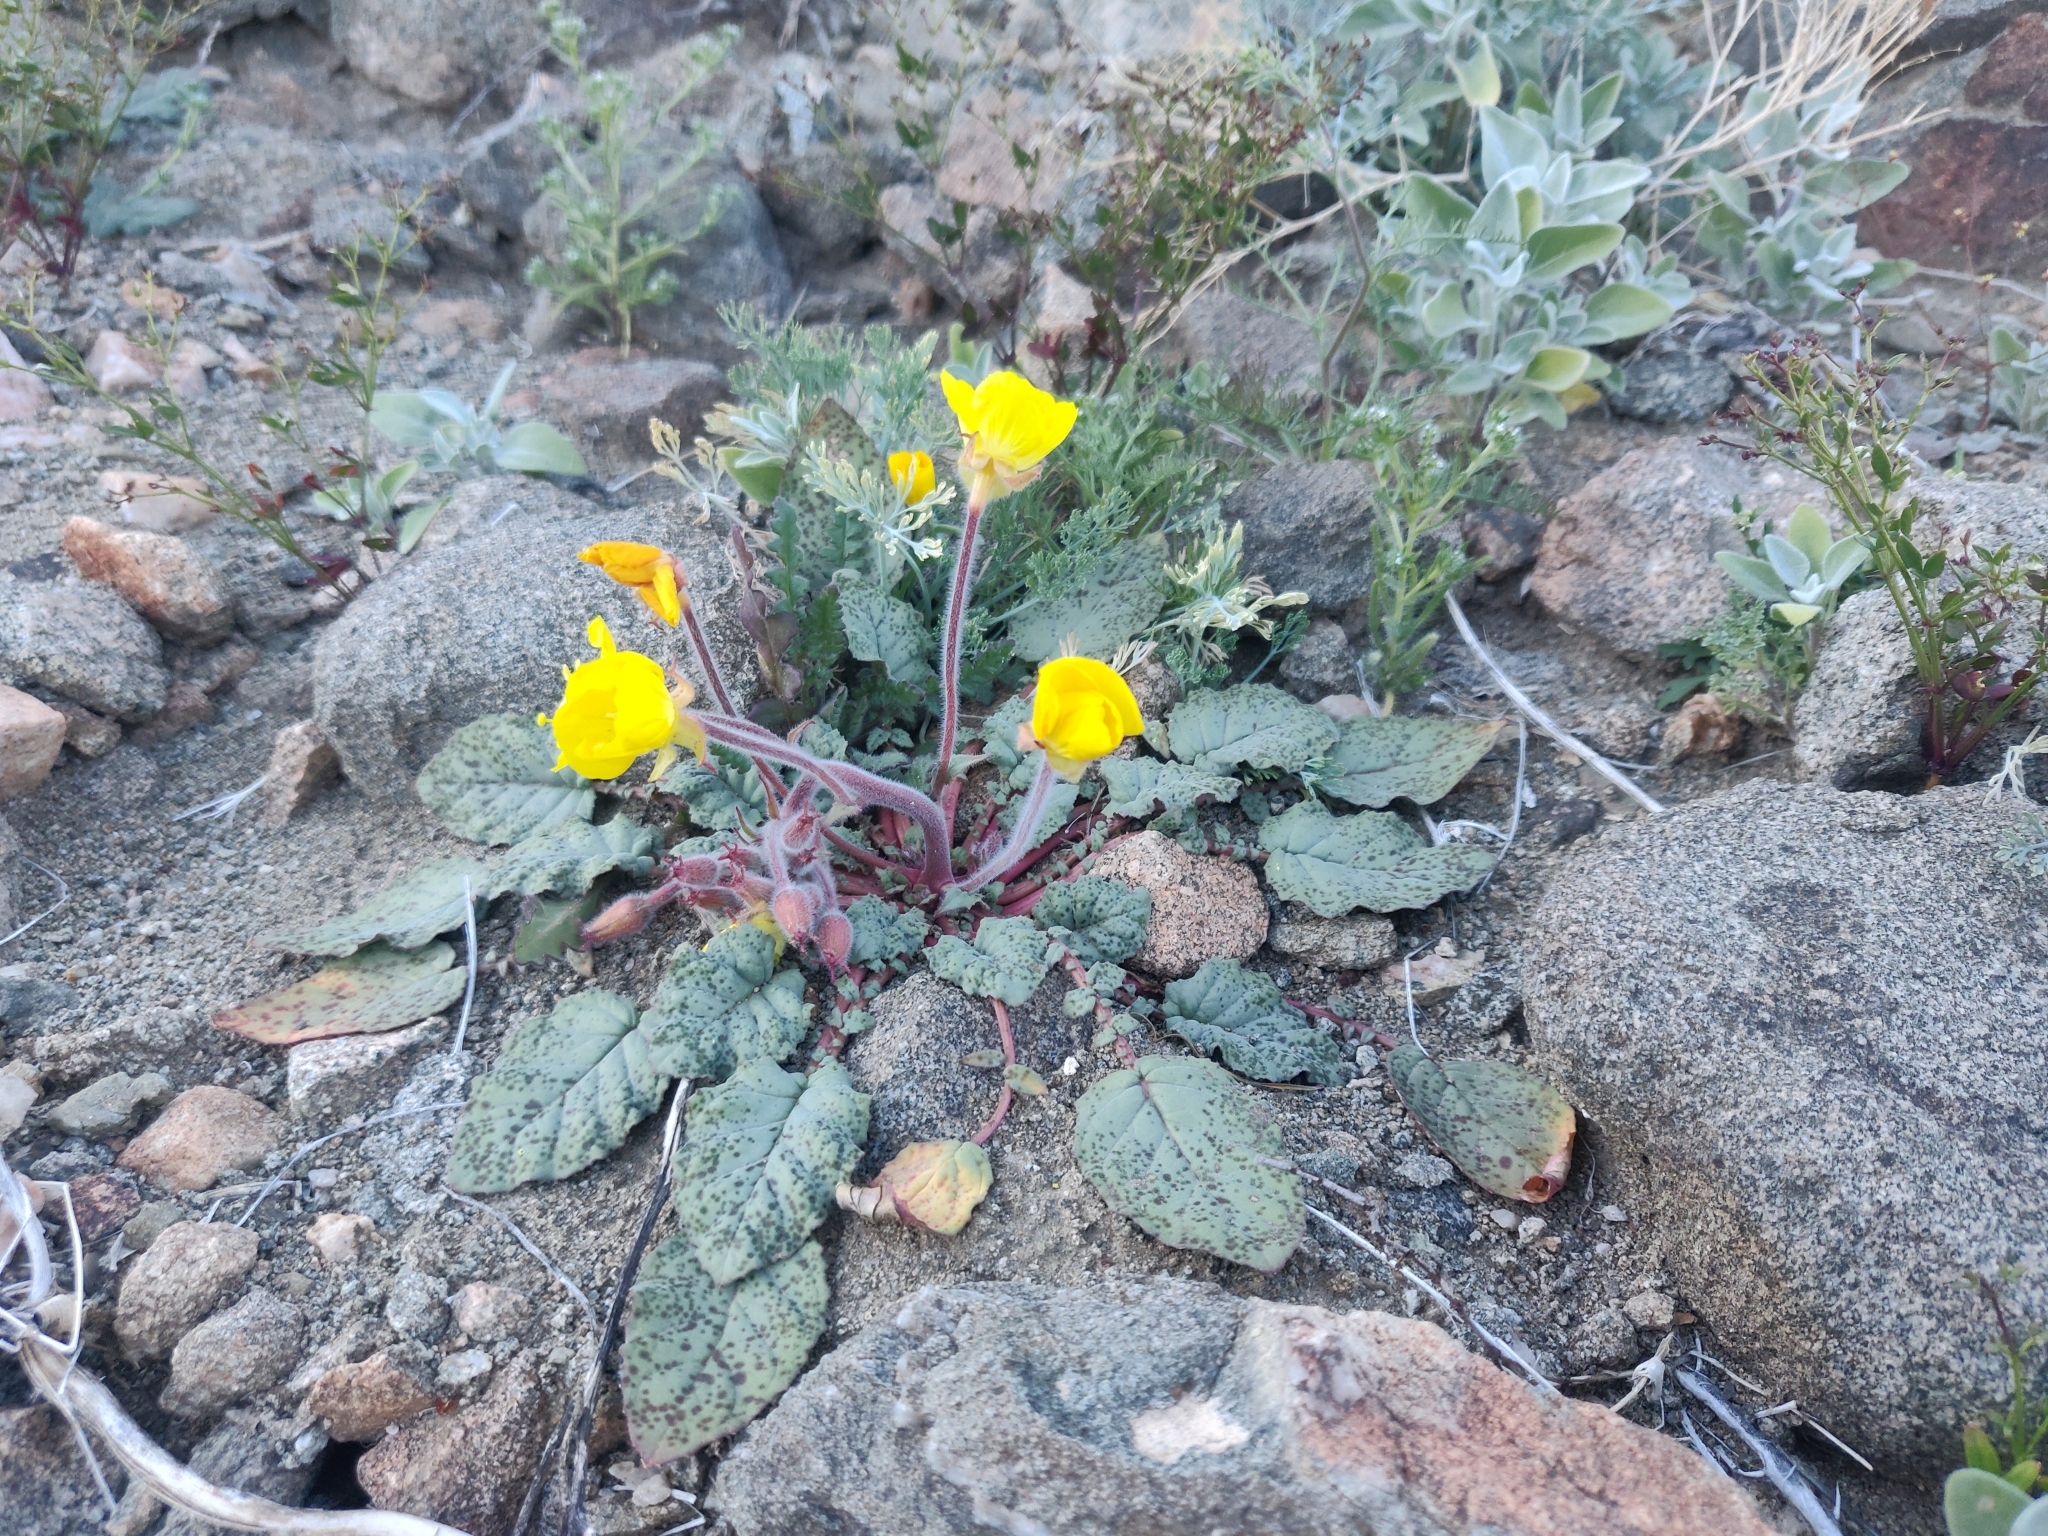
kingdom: Plantae
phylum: Tracheophyta
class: Magnoliopsida
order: Myrtales
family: Onagraceae
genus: Chylismia
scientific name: Chylismia brevipes
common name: Yellow cups
